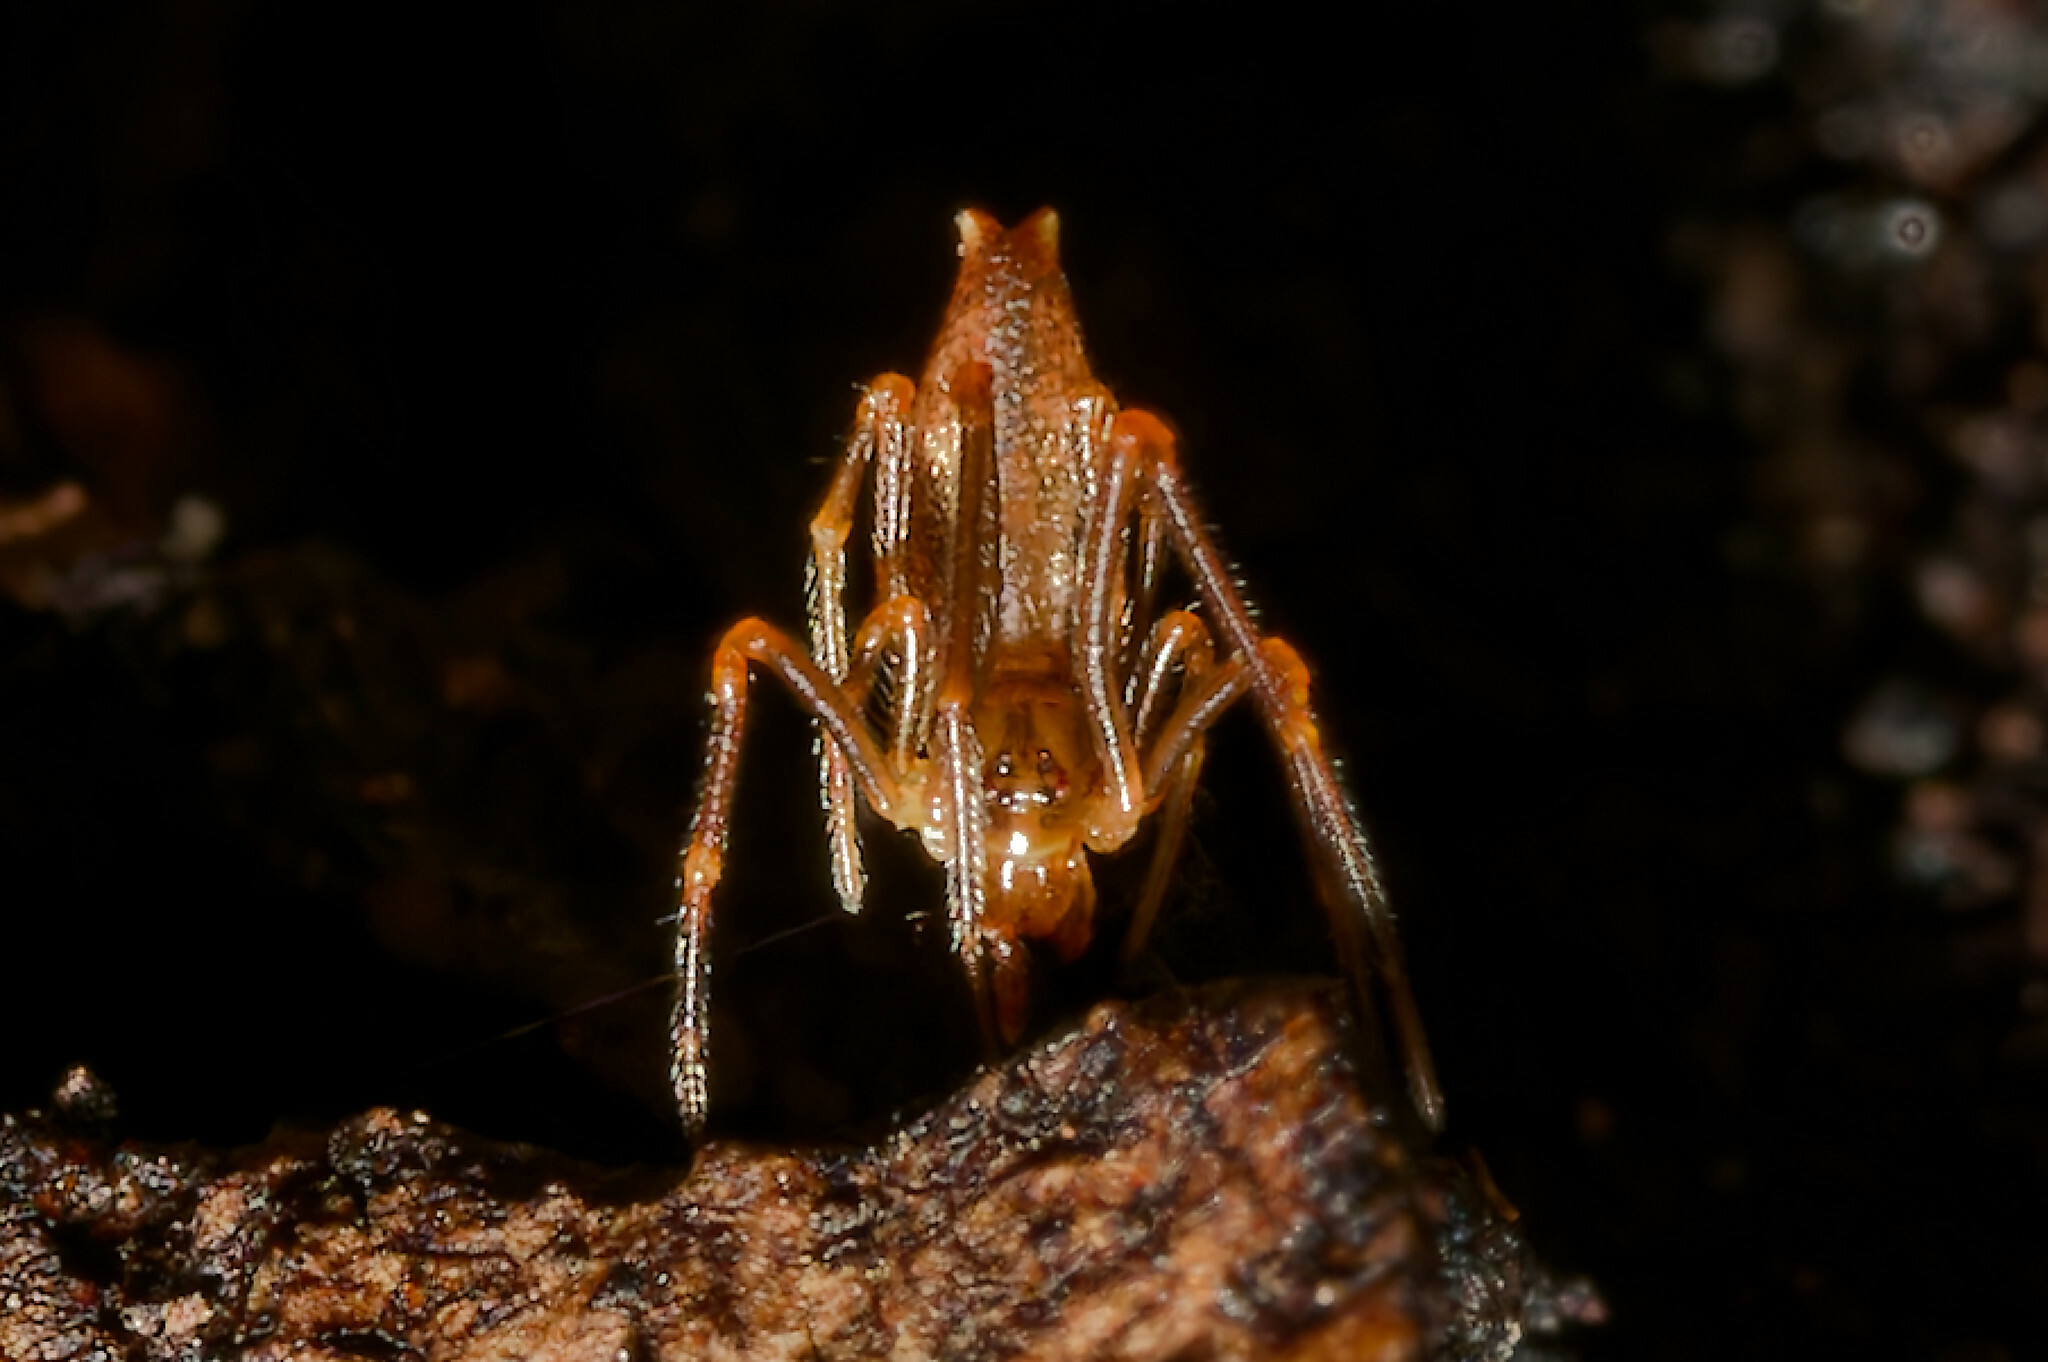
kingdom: Animalia
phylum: Arthropoda
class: Arachnida
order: Araneae
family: Theridiidae
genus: Neospintharus
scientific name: Neospintharus trigonum
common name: Horned parasitic cobweaver
